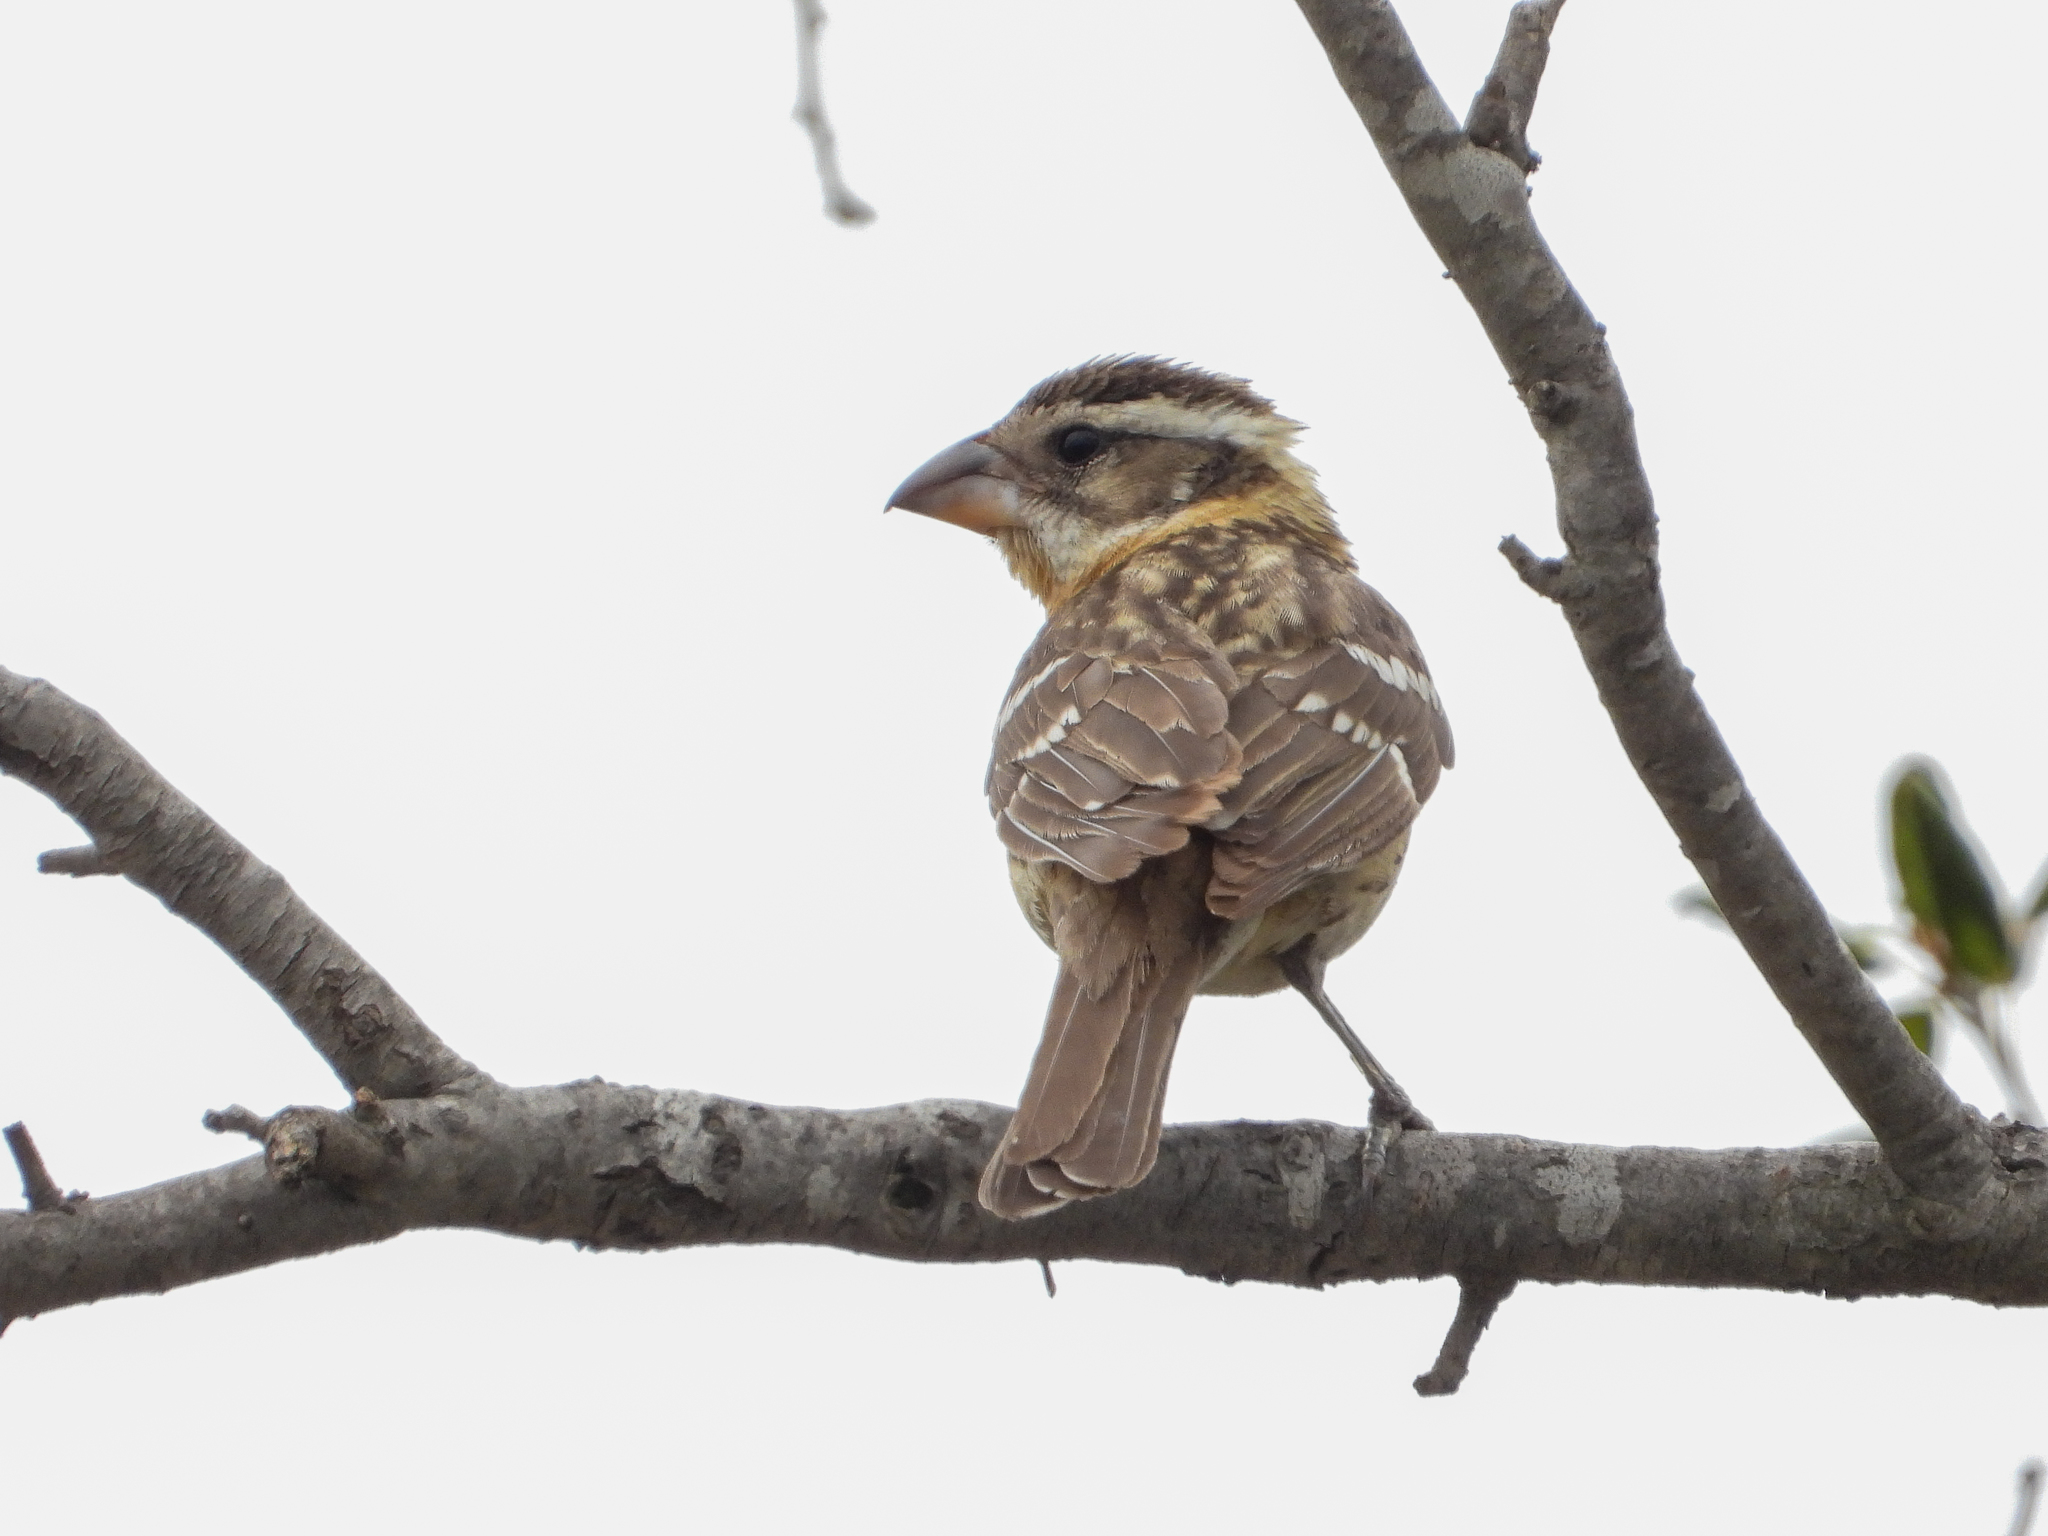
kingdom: Animalia
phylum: Chordata
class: Aves
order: Passeriformes
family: Cardinalidae
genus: Pheucticus
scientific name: Pheucticus melanocephalus
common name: Black-headed grosbeak
